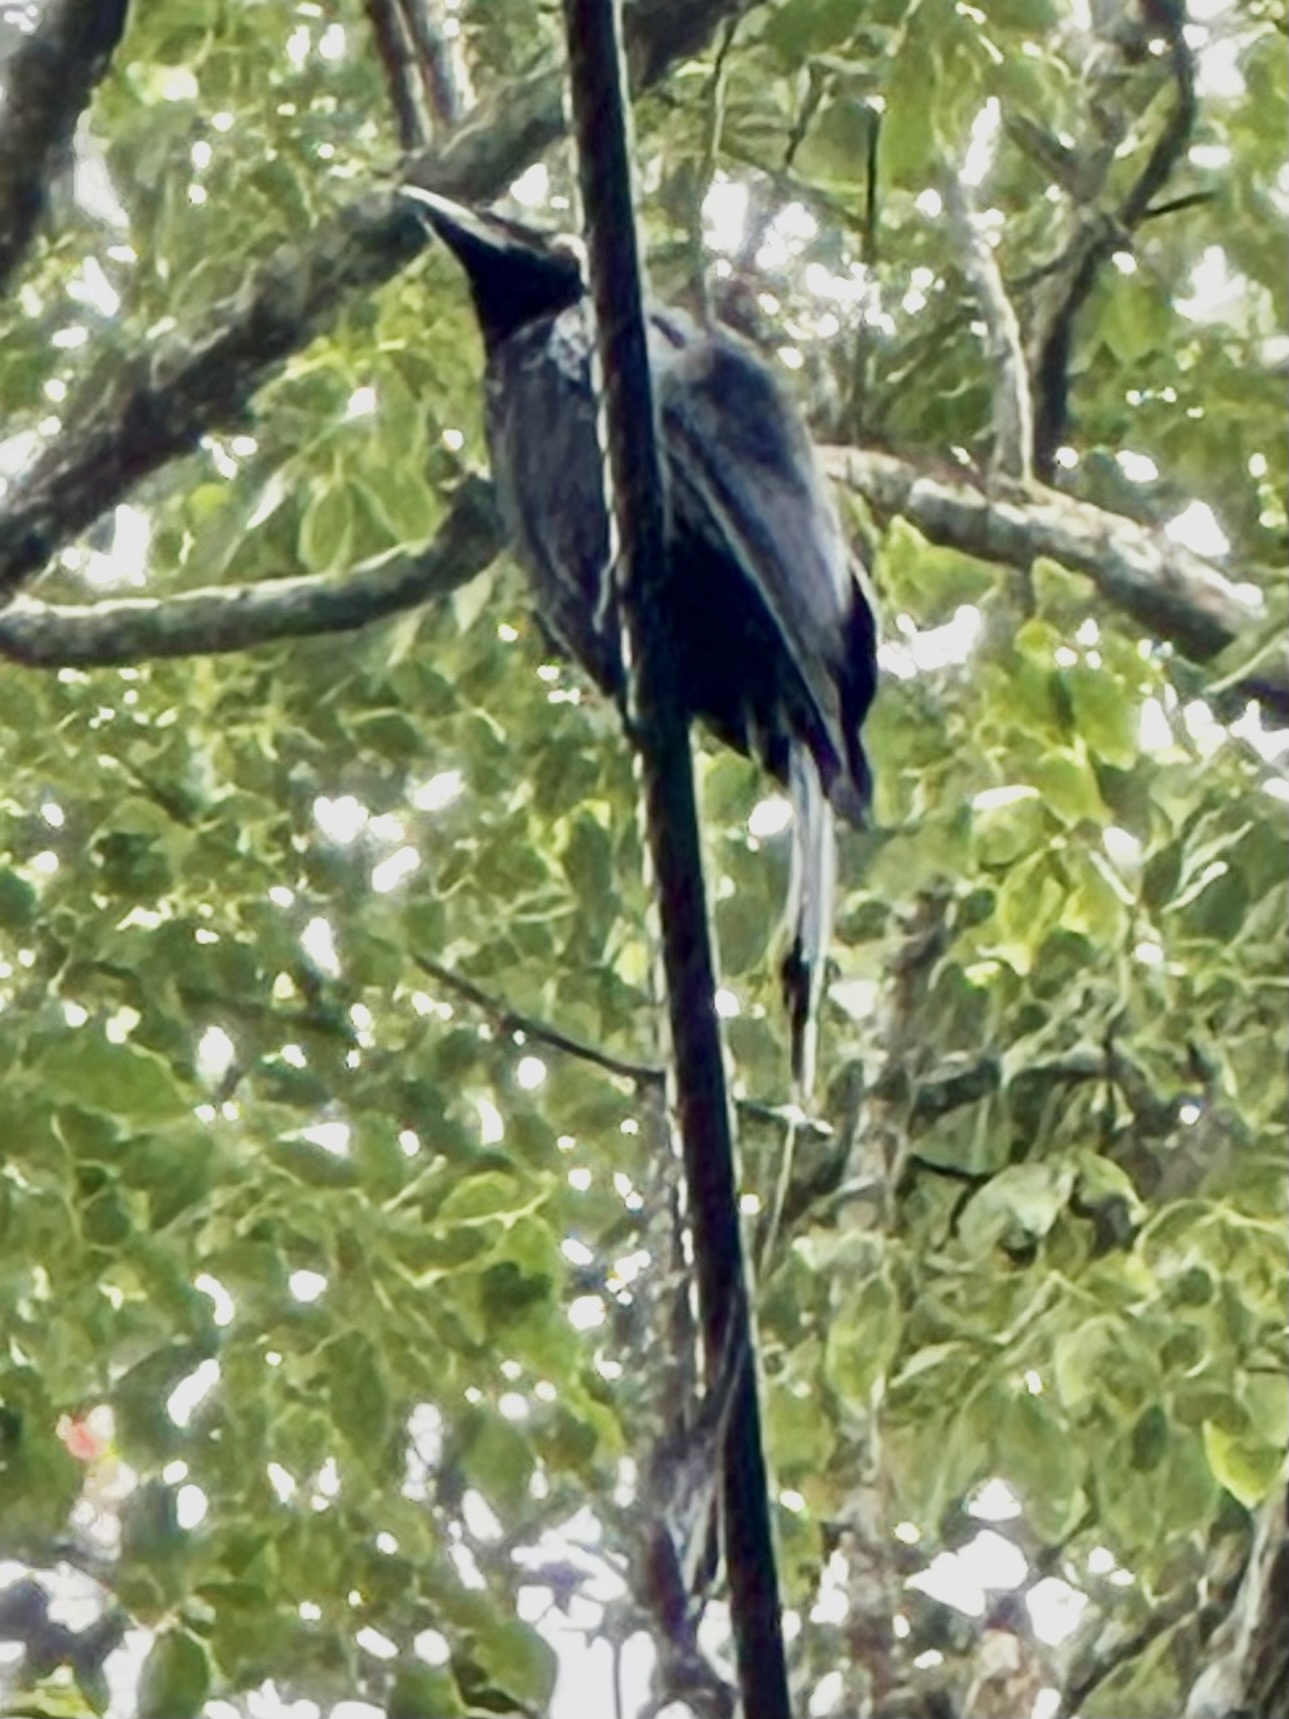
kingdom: Animalia
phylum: Chordata
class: Aves
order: Passeriformes
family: Dicruridae
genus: Dicrurus
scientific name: Dicrurus paradiseus
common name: Greater racket-tailed drongo
